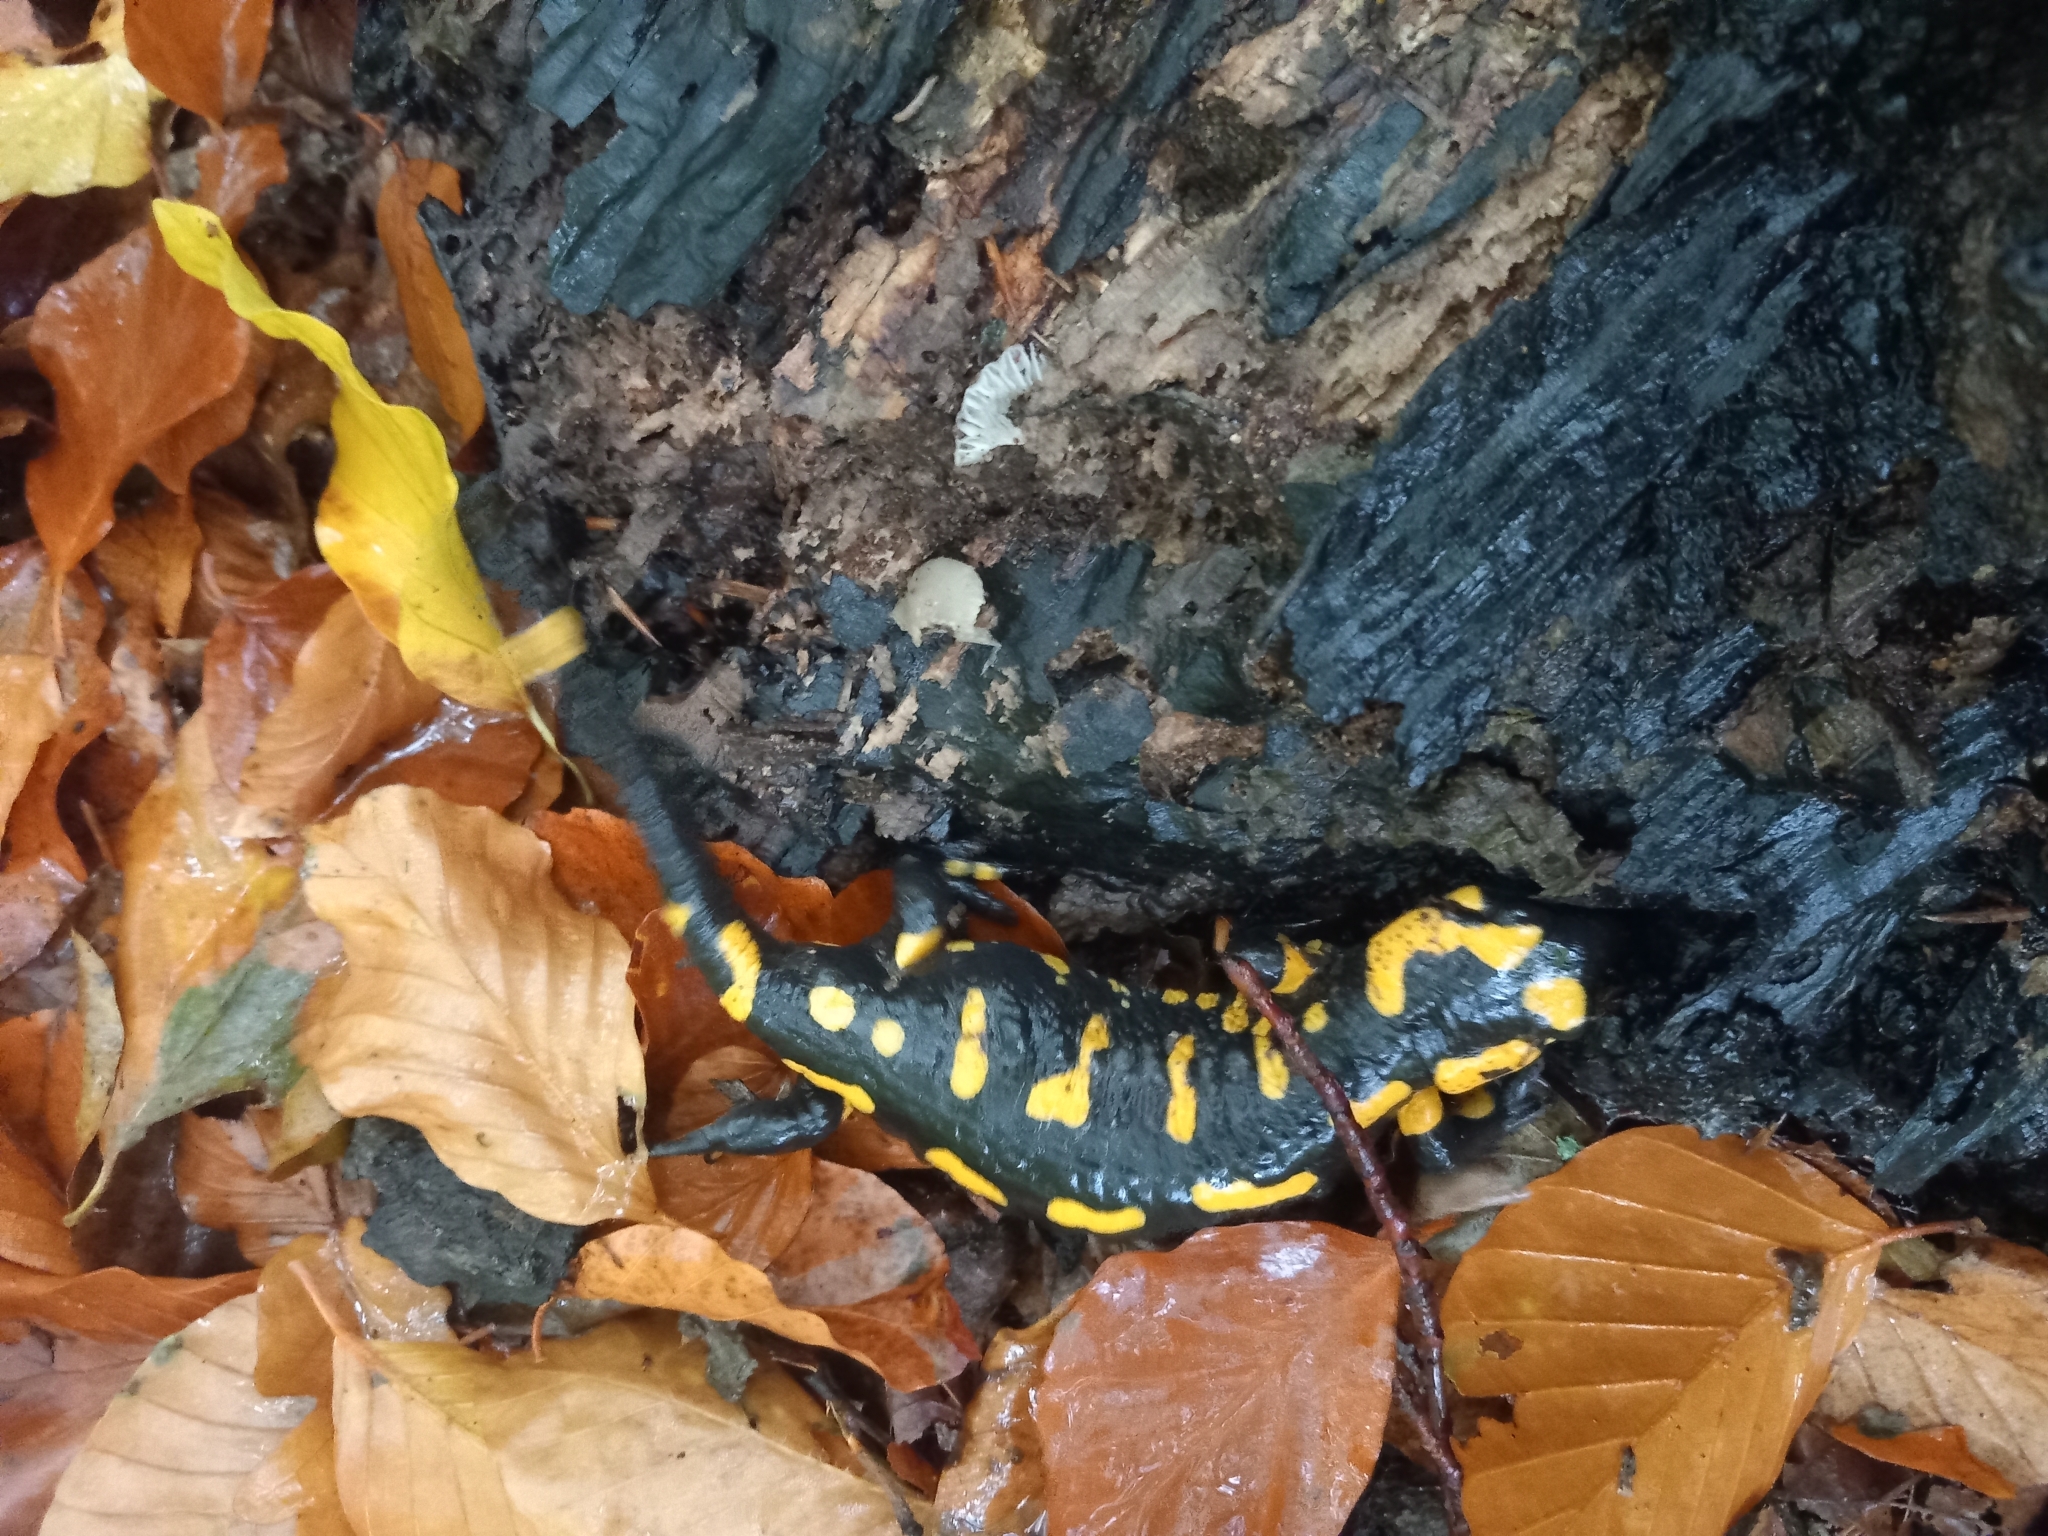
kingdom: Animalia
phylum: Chordata
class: Amphibia
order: Caudata
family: Salamandridae
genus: Salamandra
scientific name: Salamandra salamandra
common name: Fire salamander
